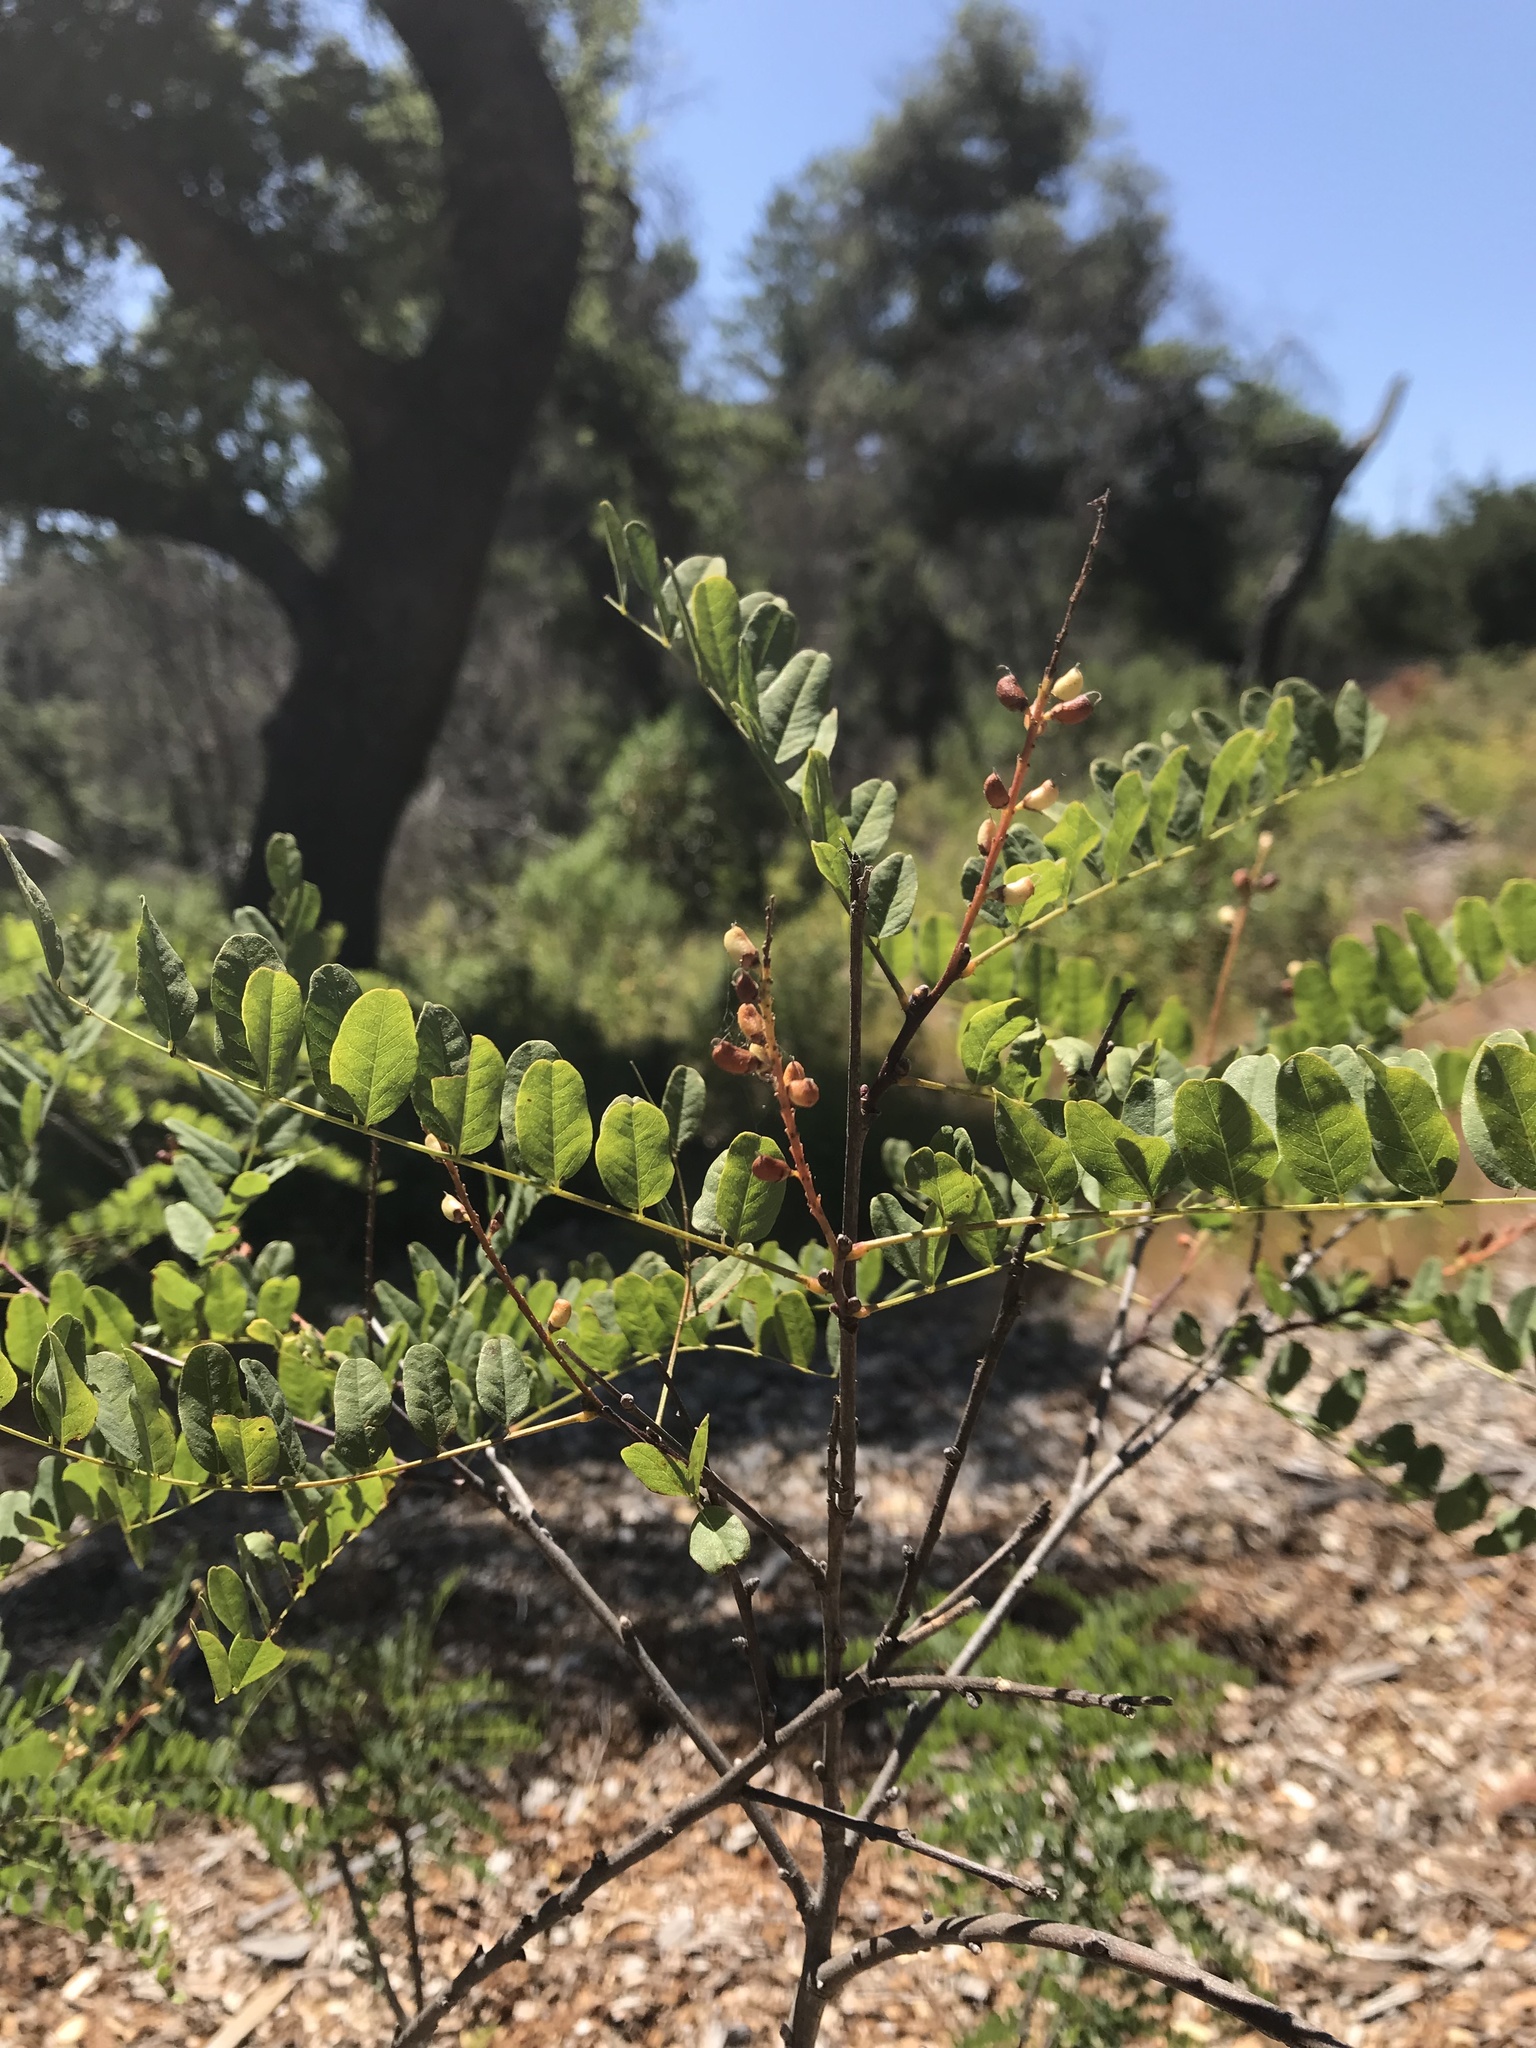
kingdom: Plantae
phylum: Tracheophyta
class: Magnoliopsida
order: Fabales
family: Fabaceae
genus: Amorpha
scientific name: Amorpha californica
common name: California indigobush
